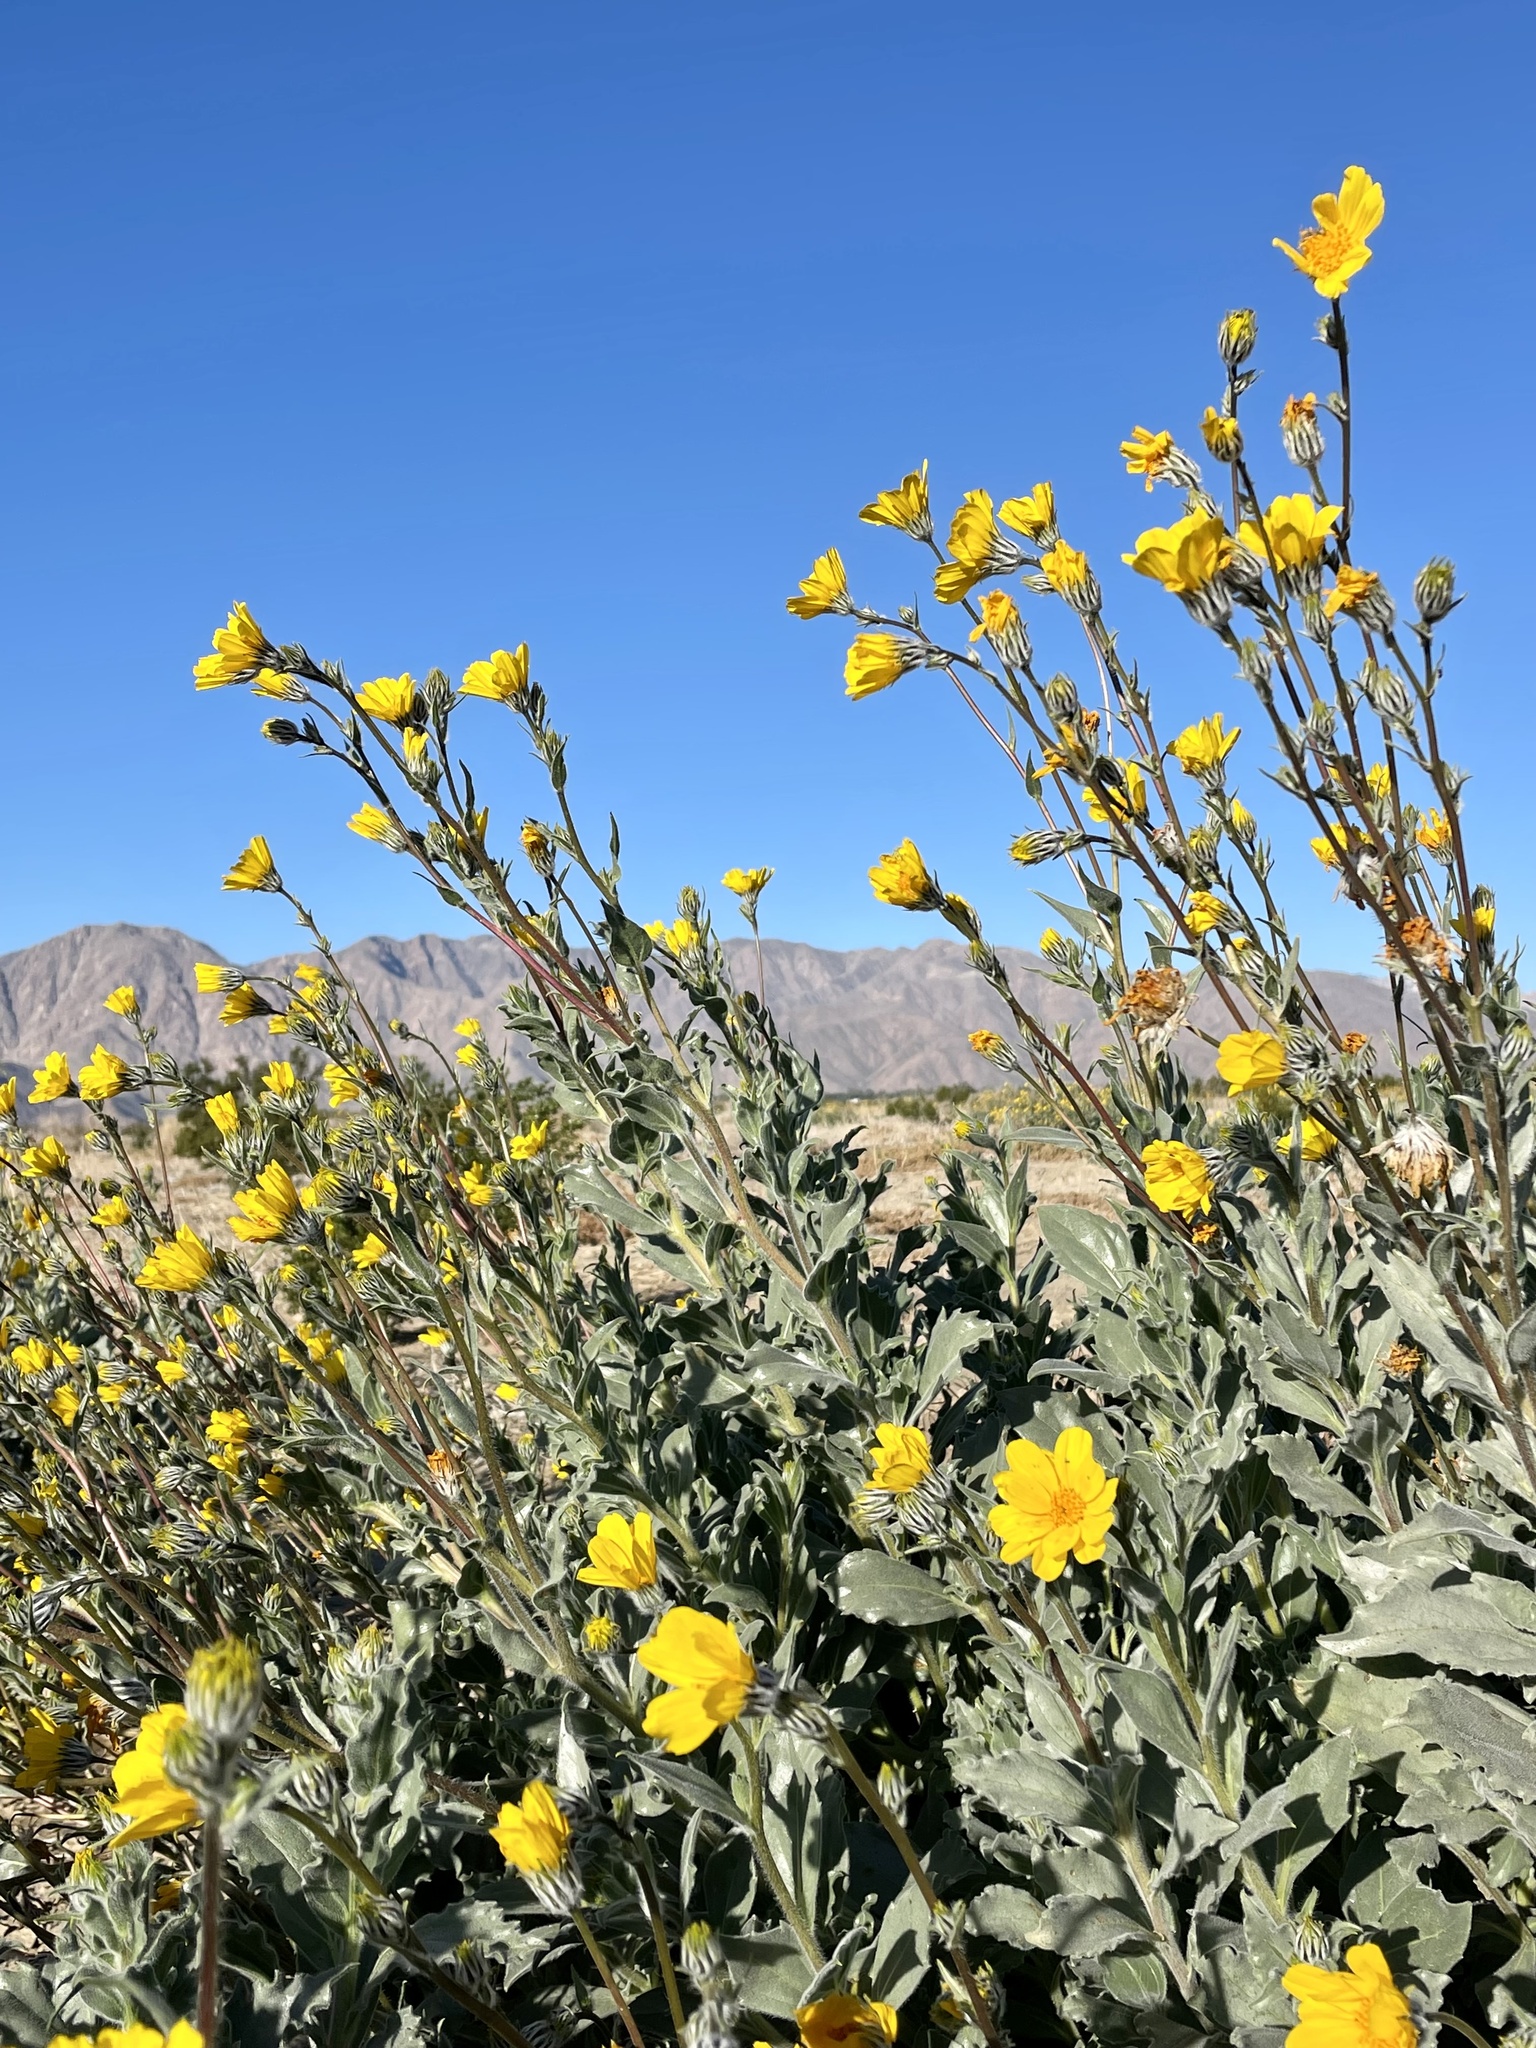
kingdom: Plantae
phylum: Tracheophyta
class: Magnoliopsida
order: Asterales
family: Asteraceae
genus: Geraea
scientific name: Geraea canescens
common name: Desert-gold
